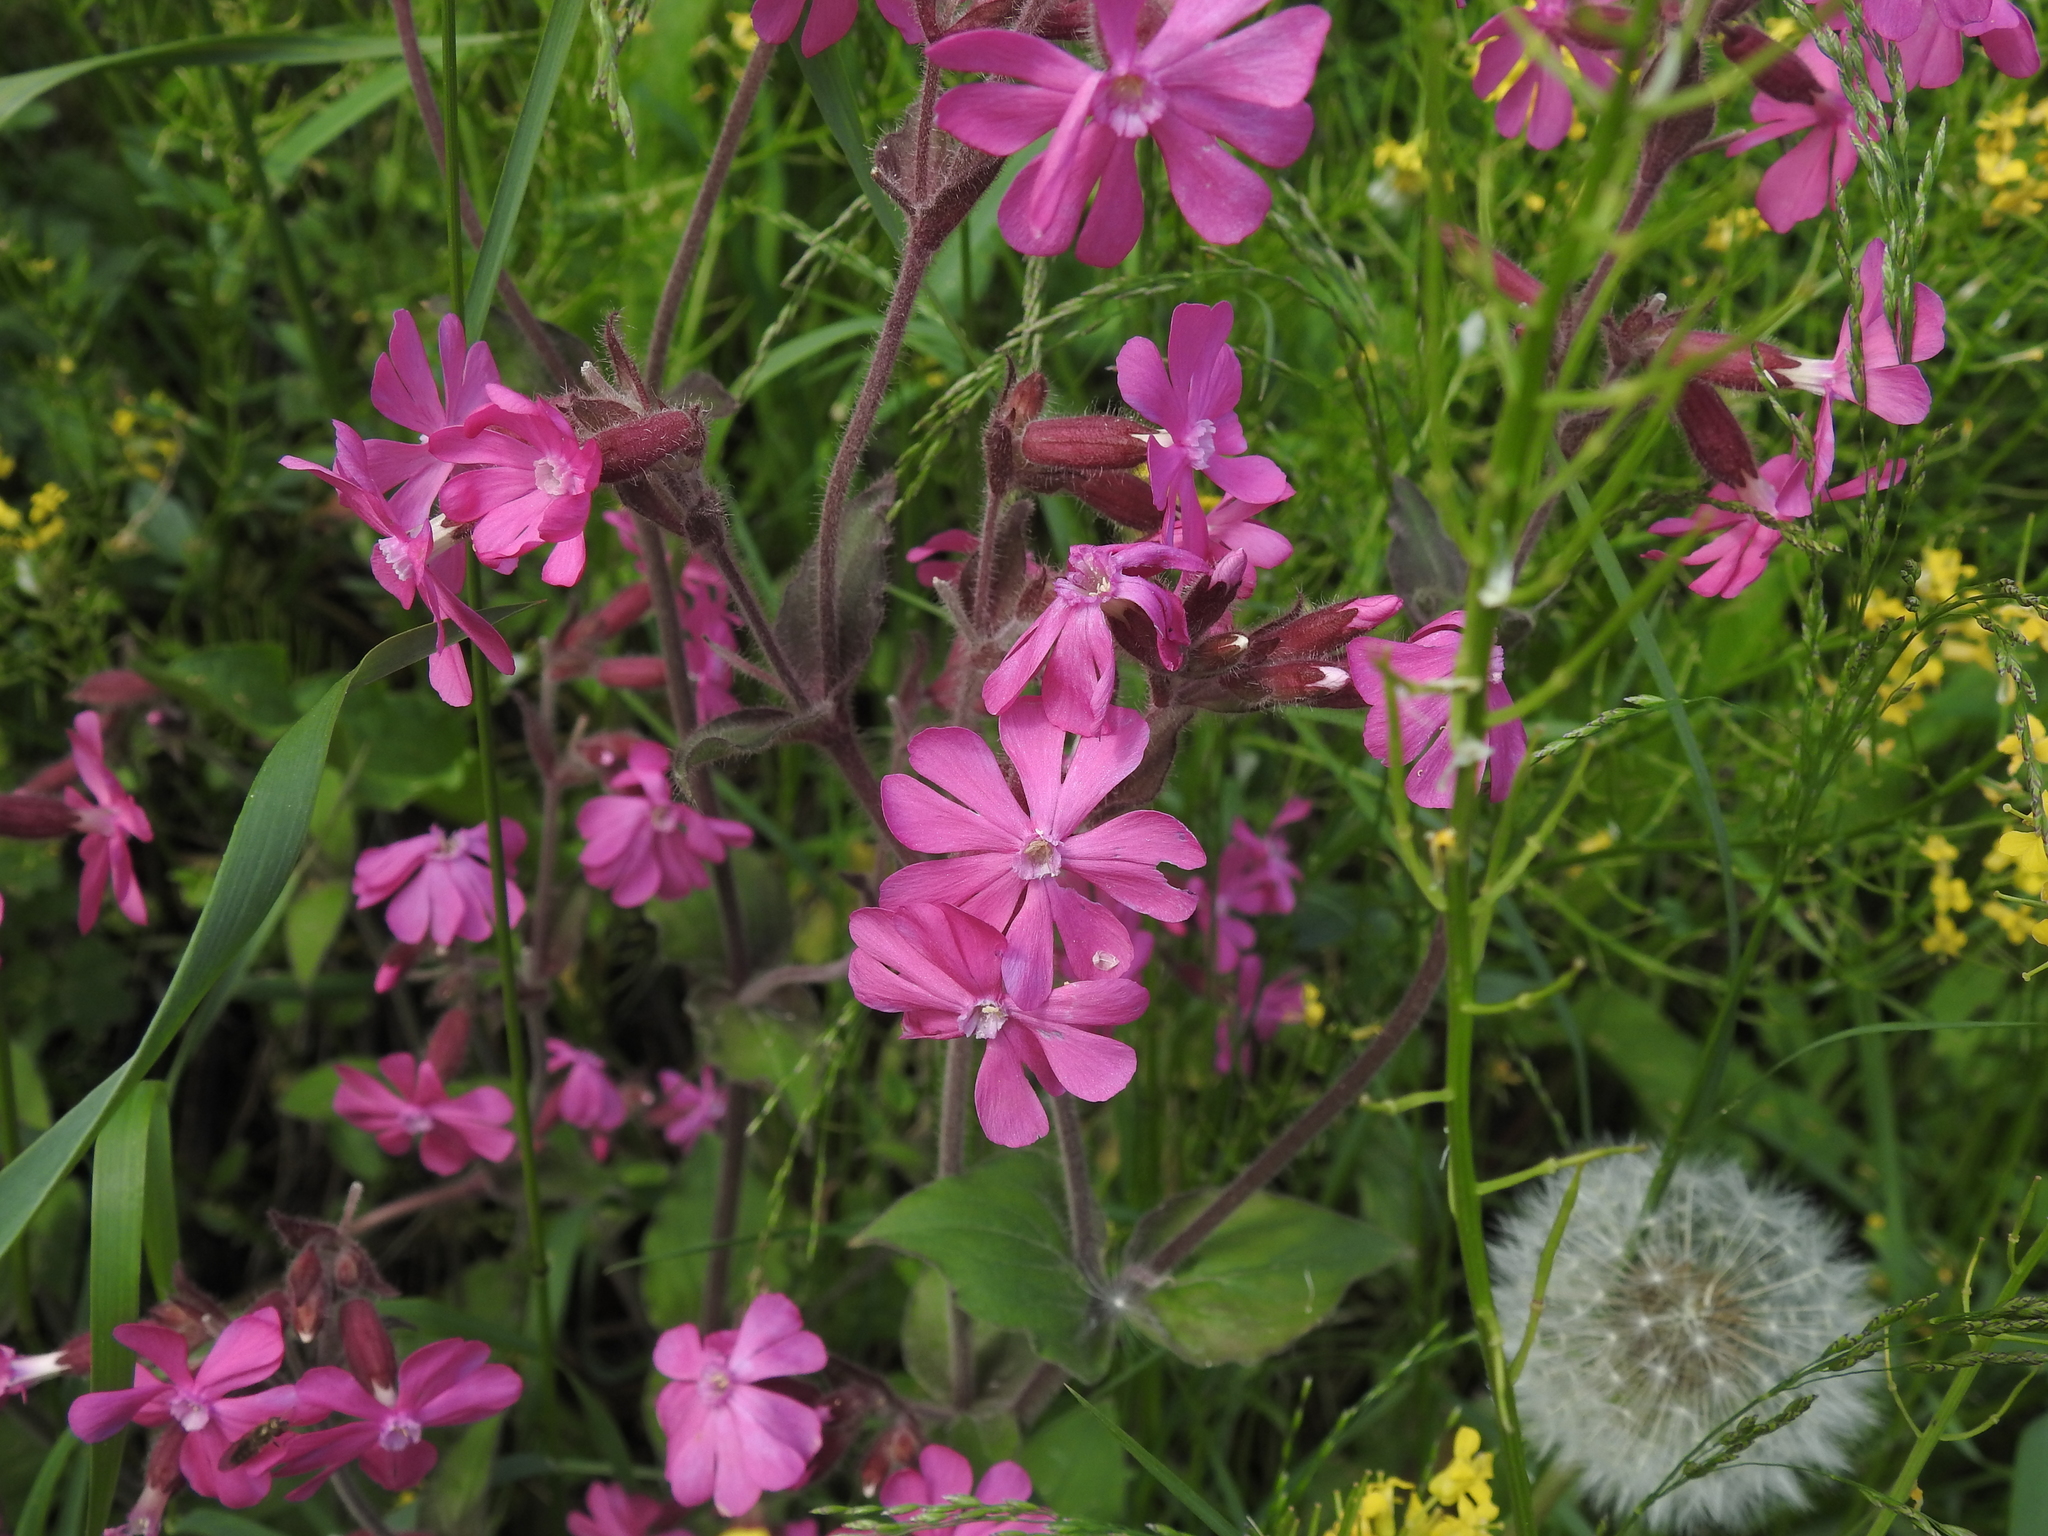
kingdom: Plantae
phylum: Tracheophyta
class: Magnoliopsida
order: Caryophyllales
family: Caryophyllaceae
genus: Silene
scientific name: Silene dioica
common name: Red campion
